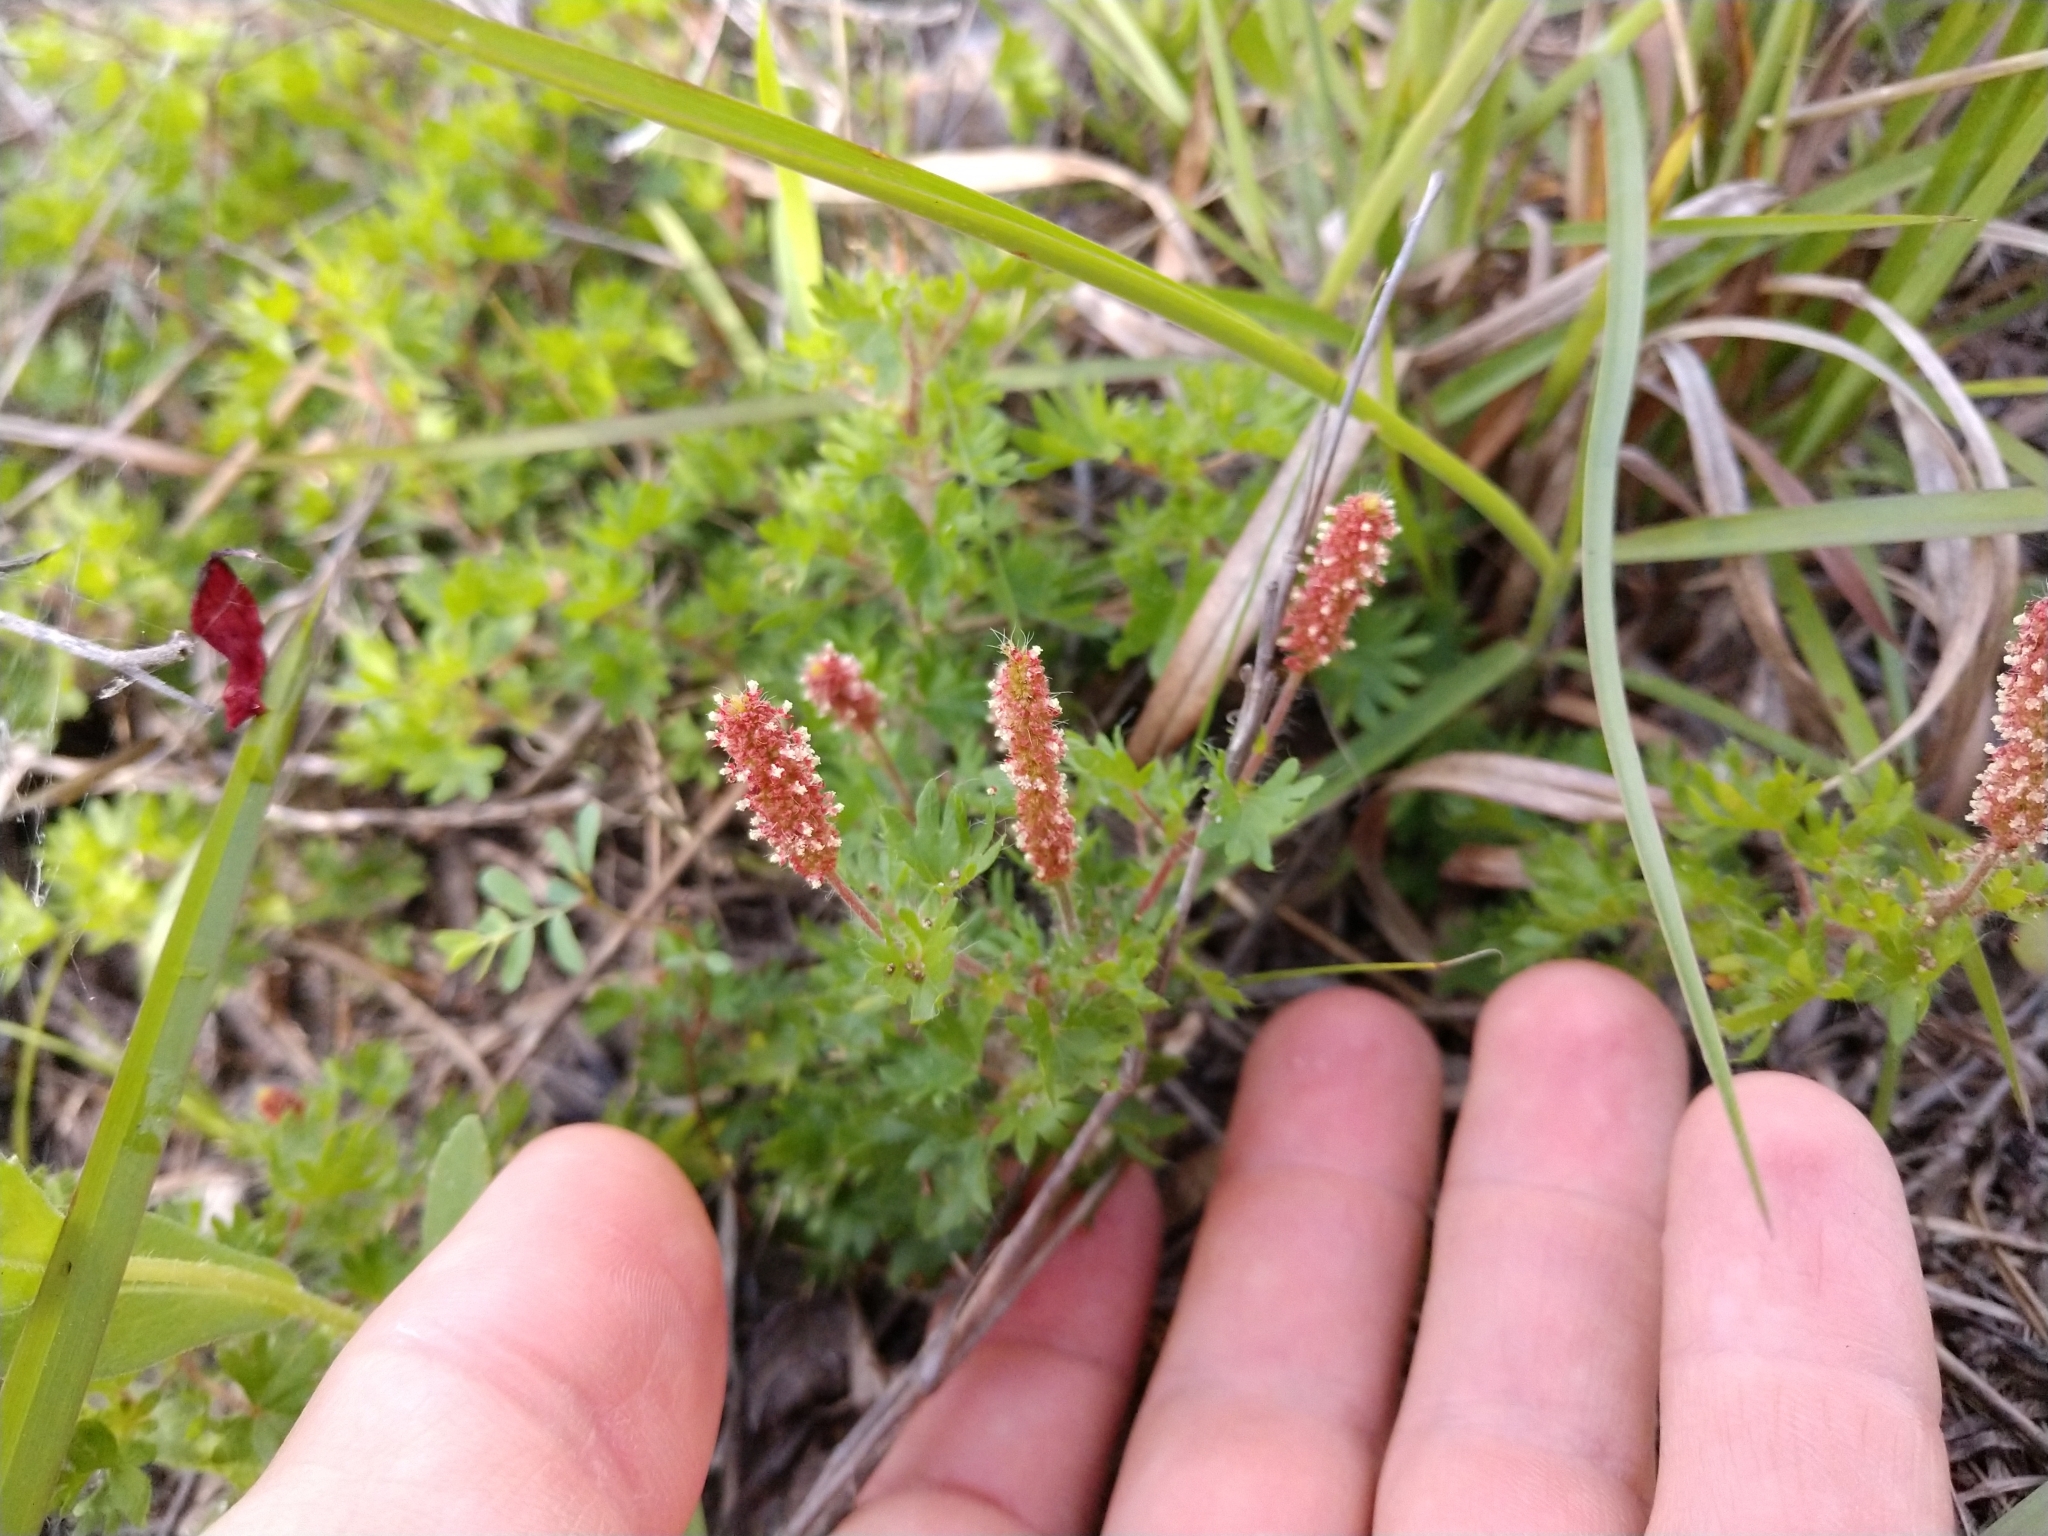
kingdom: Plantae
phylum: Tracheophyta
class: Magnoliopsida
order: Malpighiales
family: Euphorbiaceae
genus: Acalypha
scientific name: Acalypha radians
